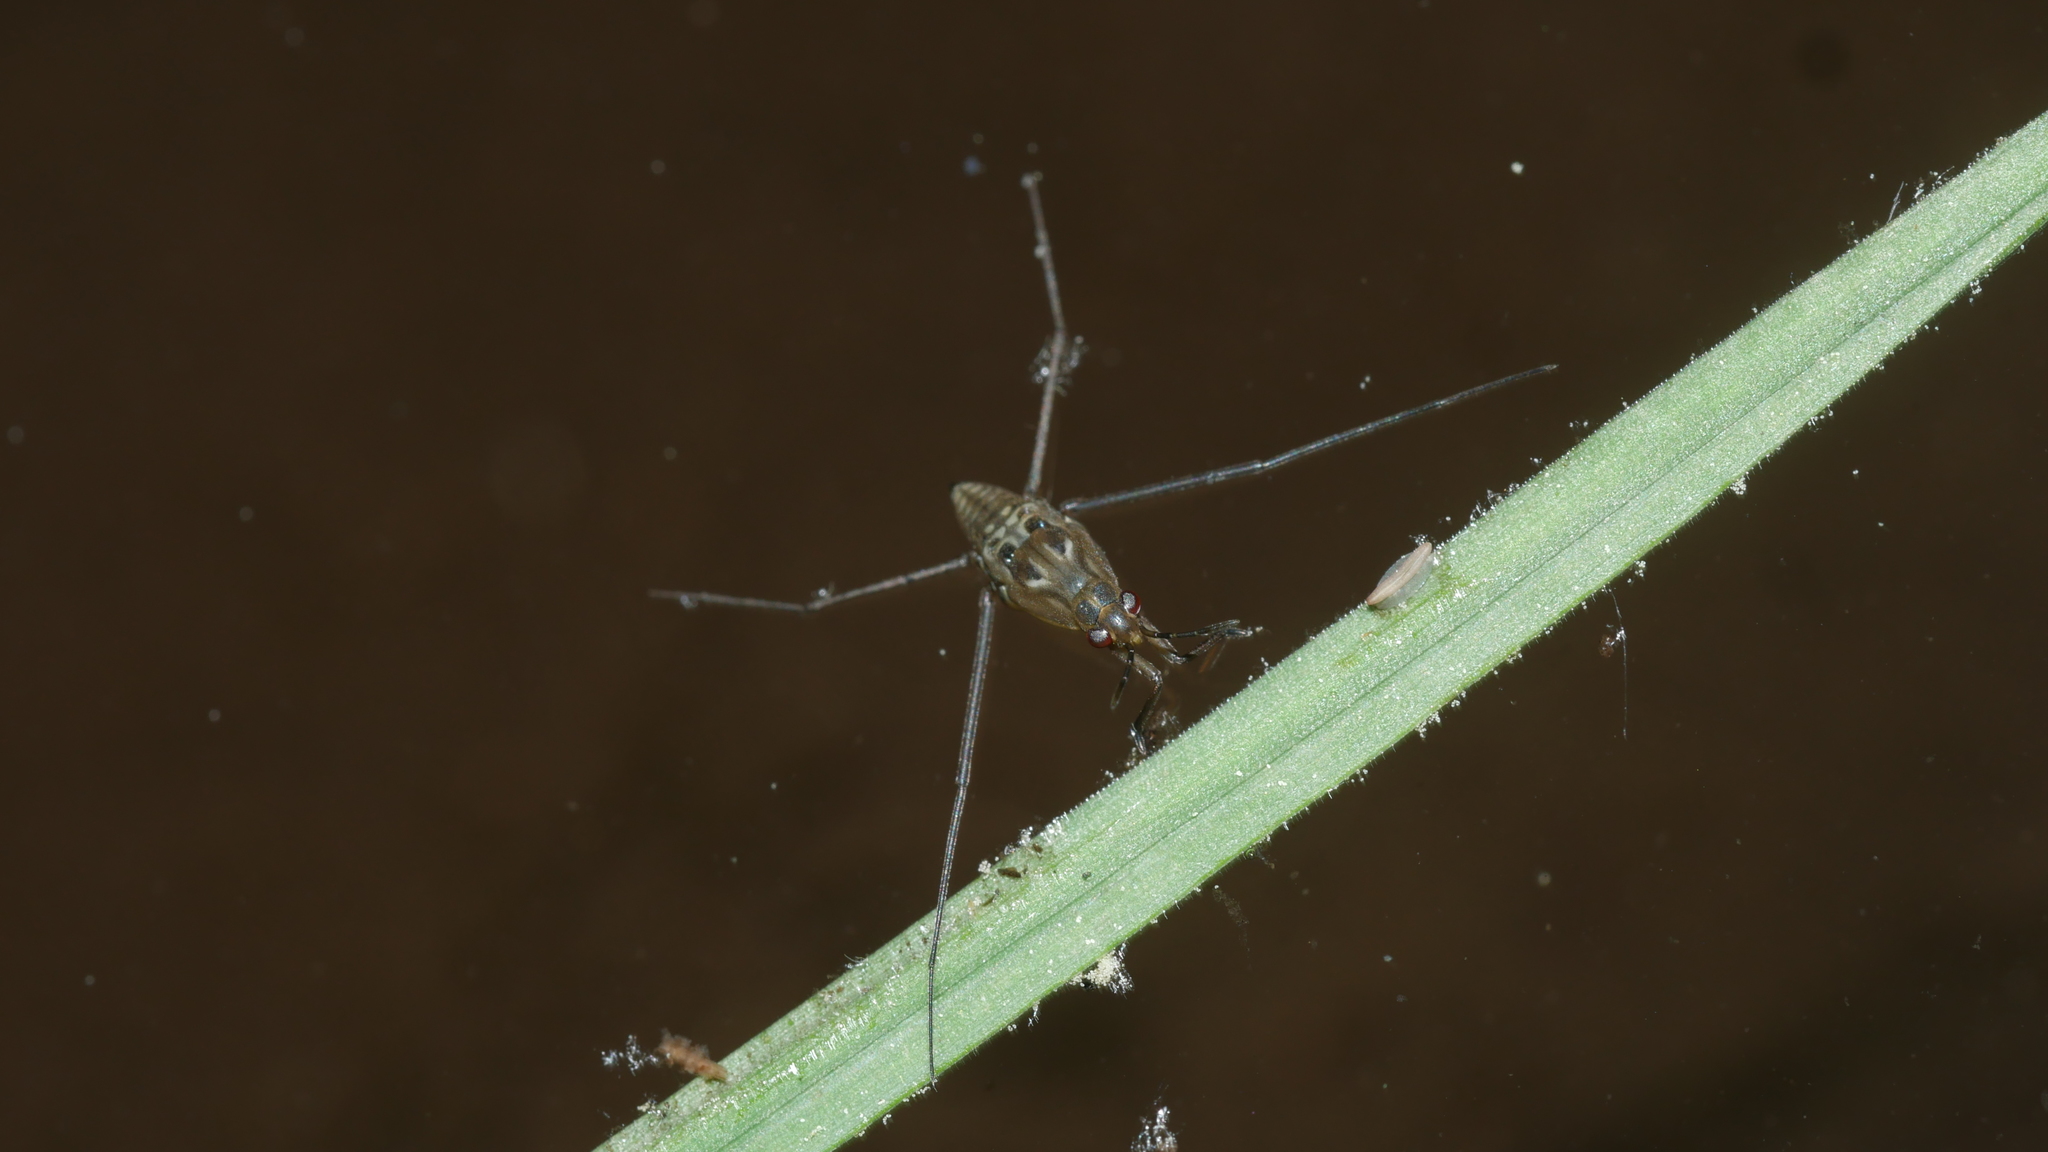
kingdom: Animalia
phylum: Arthropoda
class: Insecta
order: Hemiptera
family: Gerridae
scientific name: Gerridae
